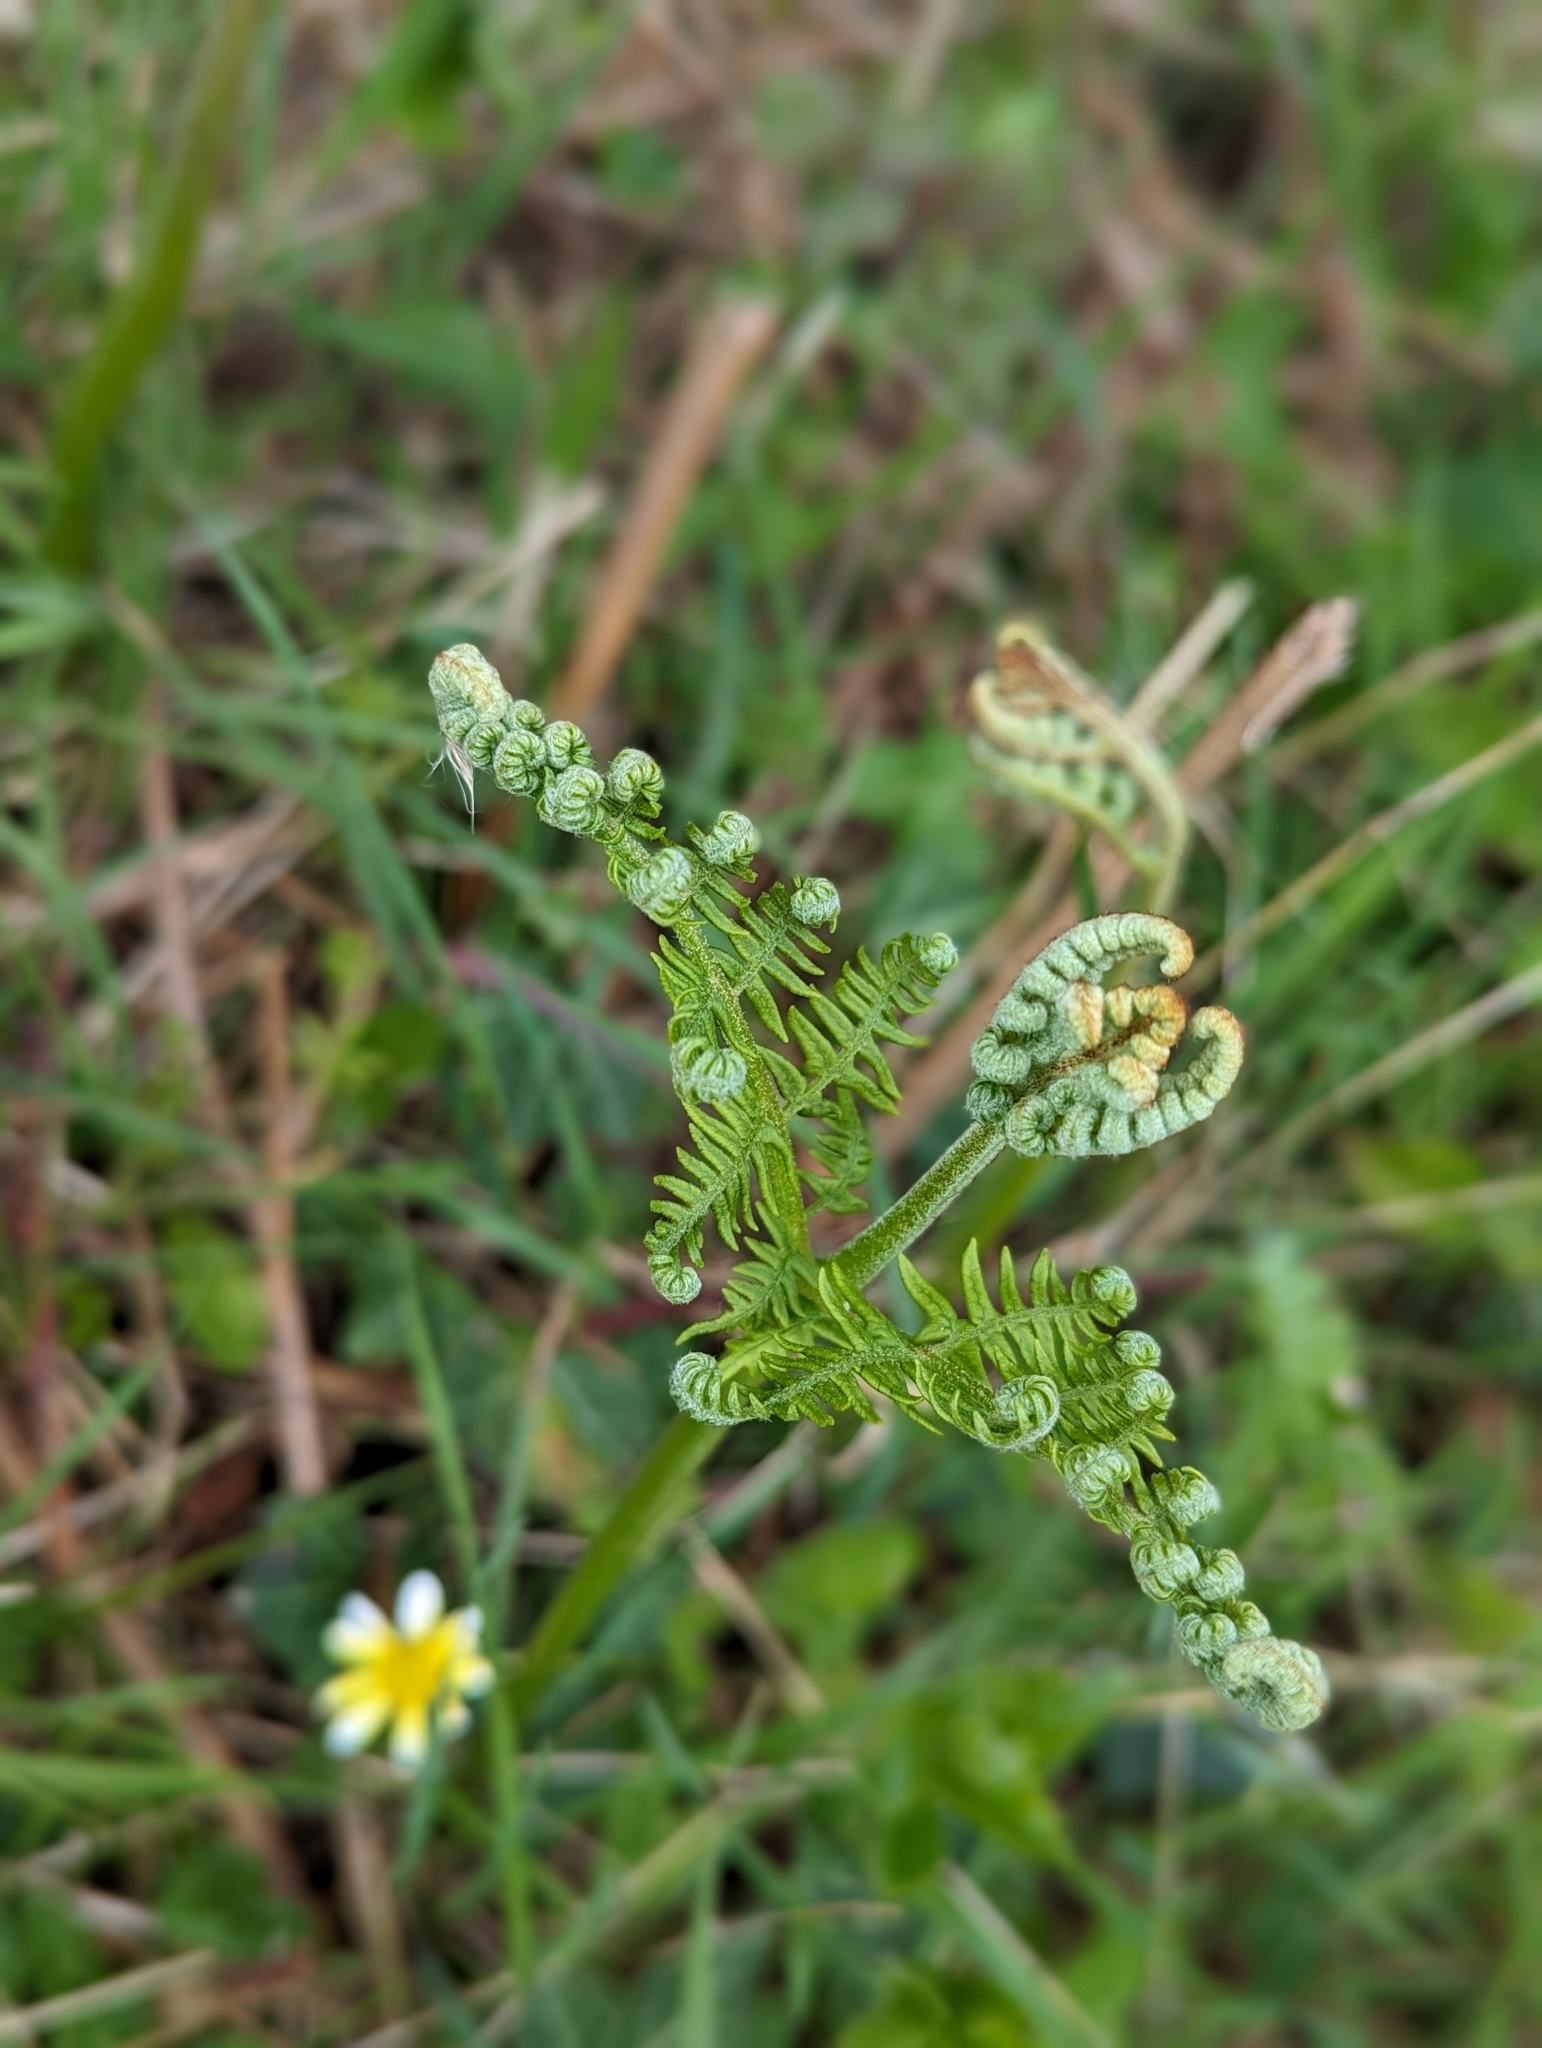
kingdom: Plantae
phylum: Tracheophyta
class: Polypodiopsida
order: Polypodiales
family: Dennstaedtiaceae
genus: Pteridium
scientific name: Pteridium aquilinum
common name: Bracken
